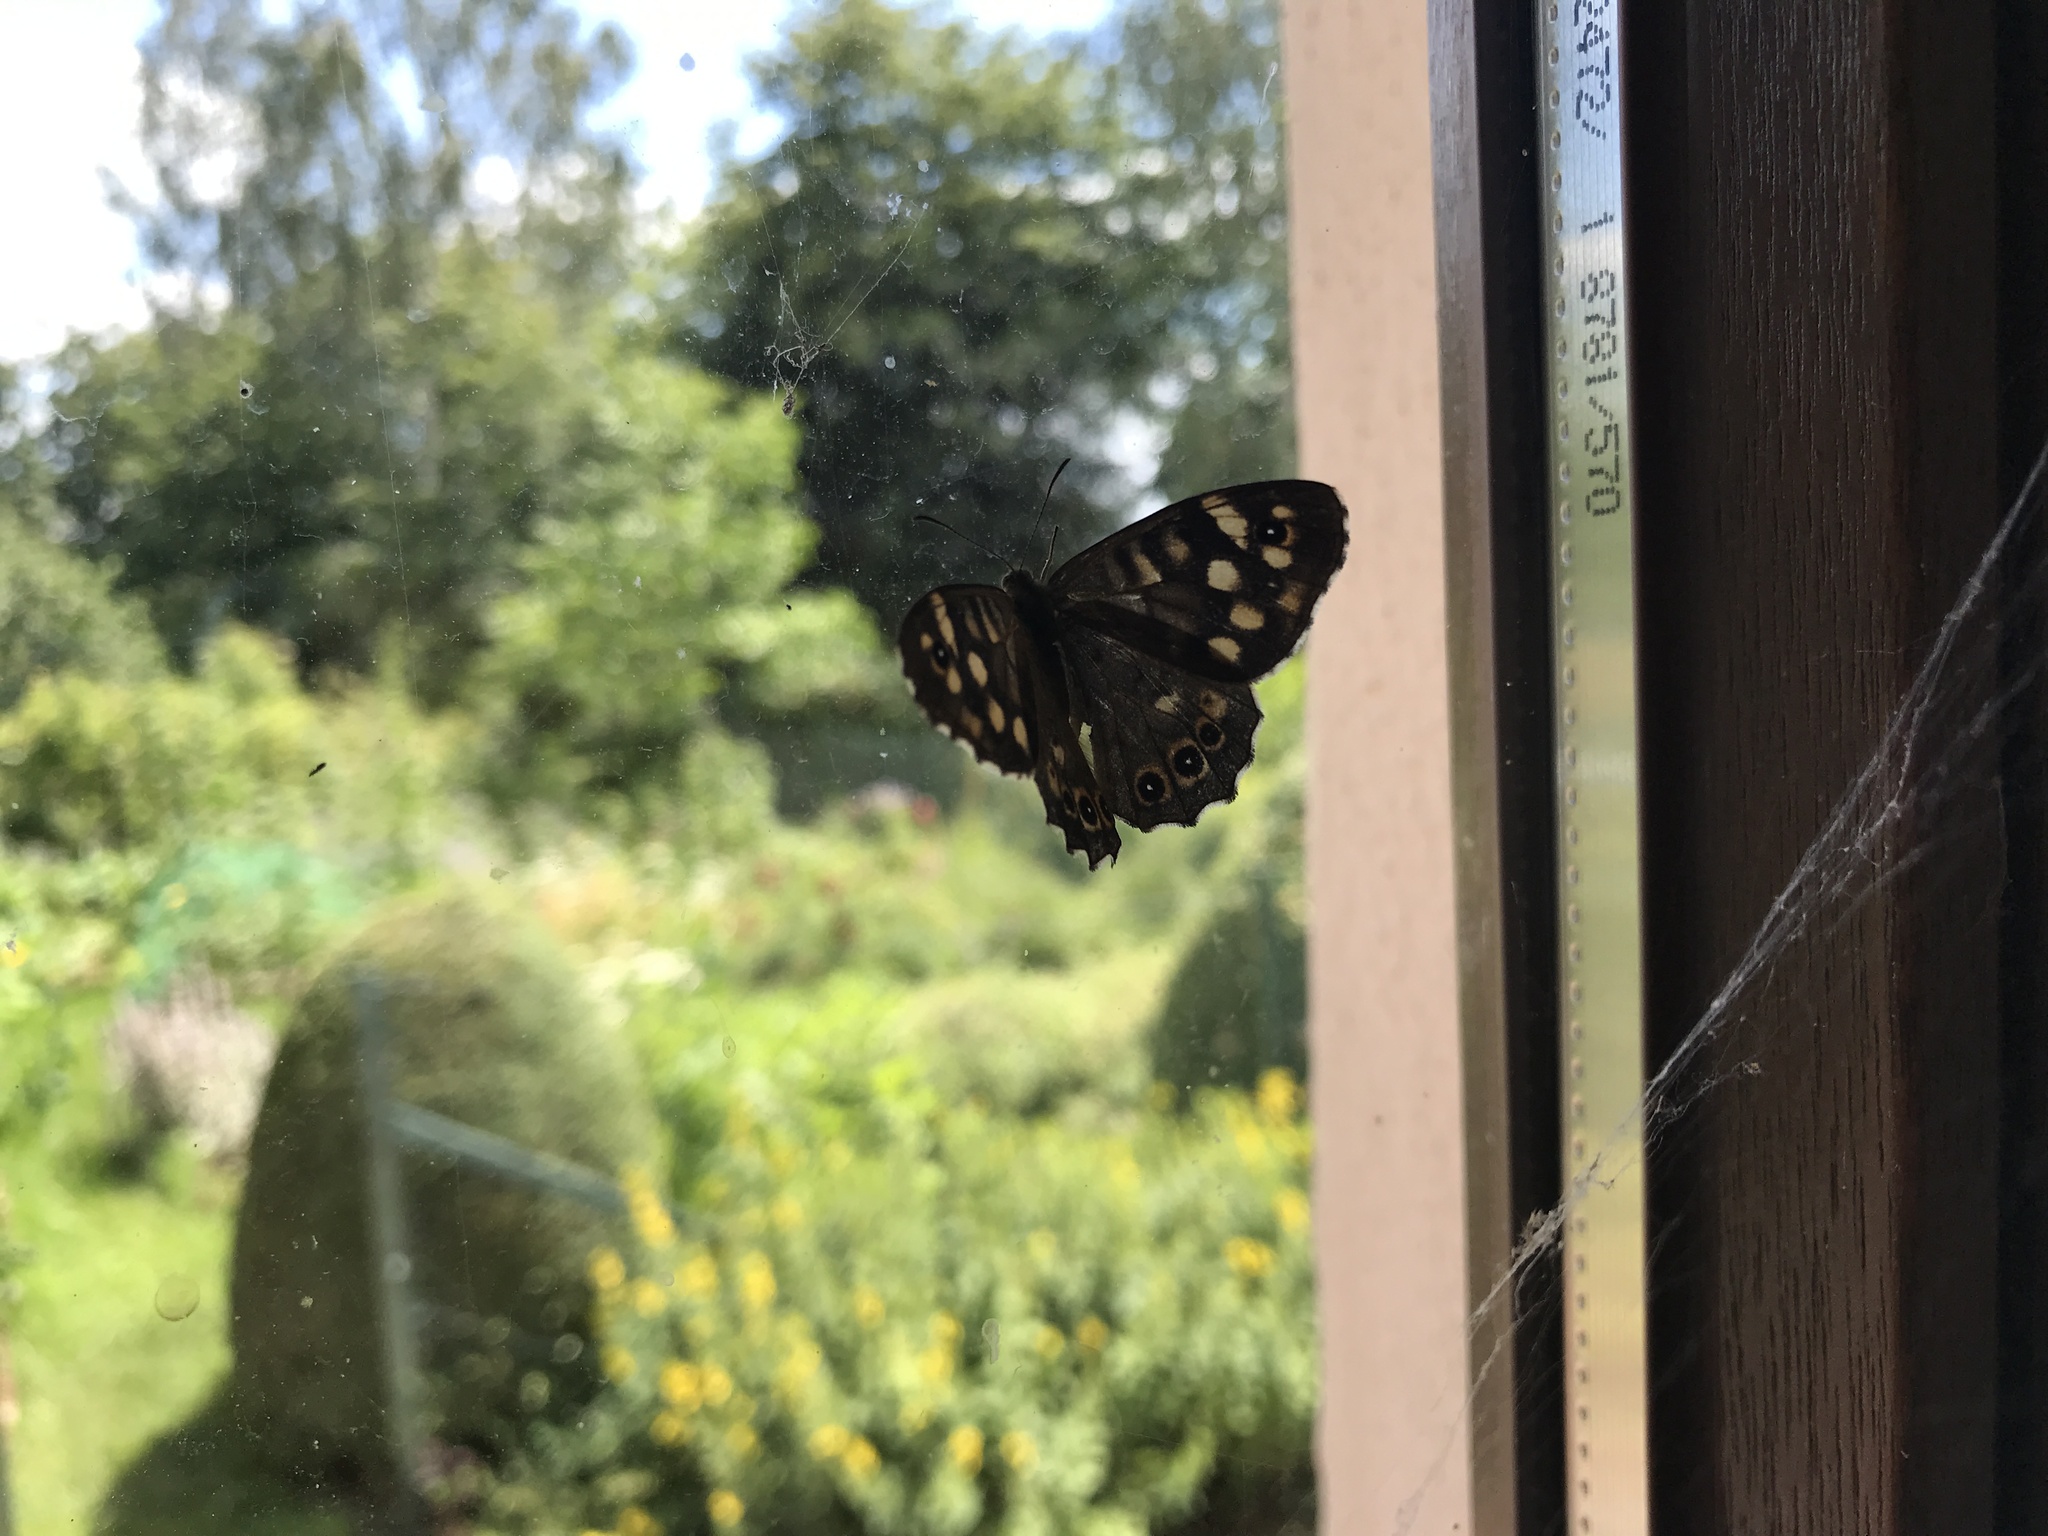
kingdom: Animalia
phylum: Arthropoda
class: Insecta
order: Lepidoptera
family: Nymphalidae
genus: Pararge
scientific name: Pararge aegeria
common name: Speckled wood
